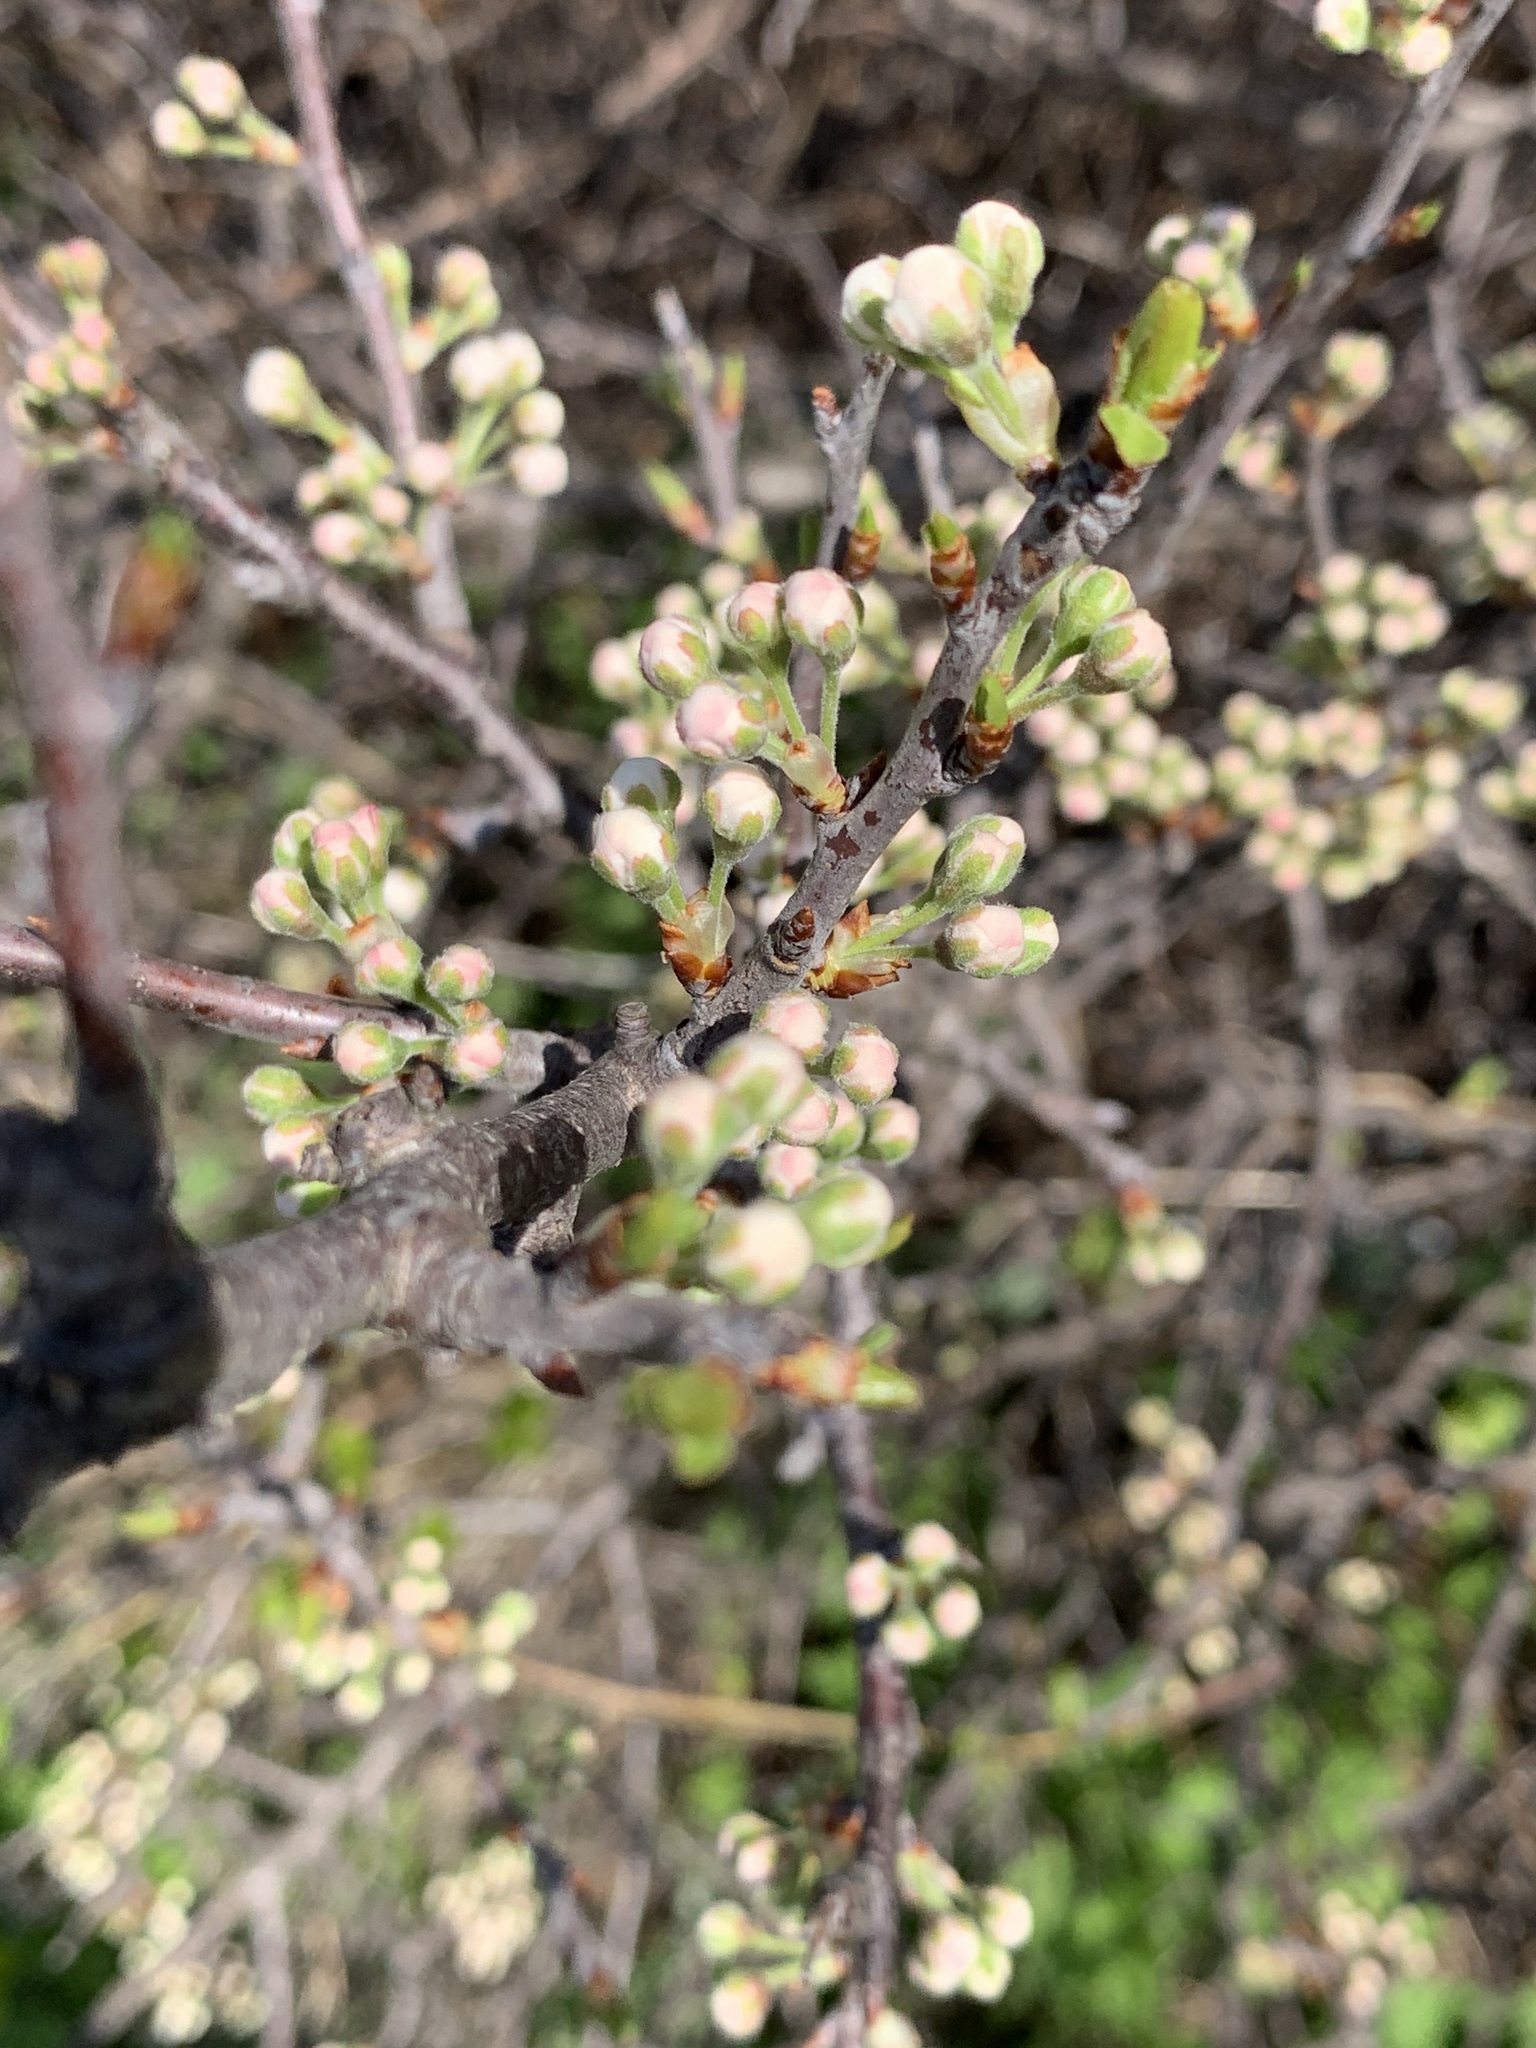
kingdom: Plantae
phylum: Tracheophyta
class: Magnoliopsida
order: Rosales
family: Rosaceae
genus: Prunus
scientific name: Prunus maritima
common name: Beach plum
